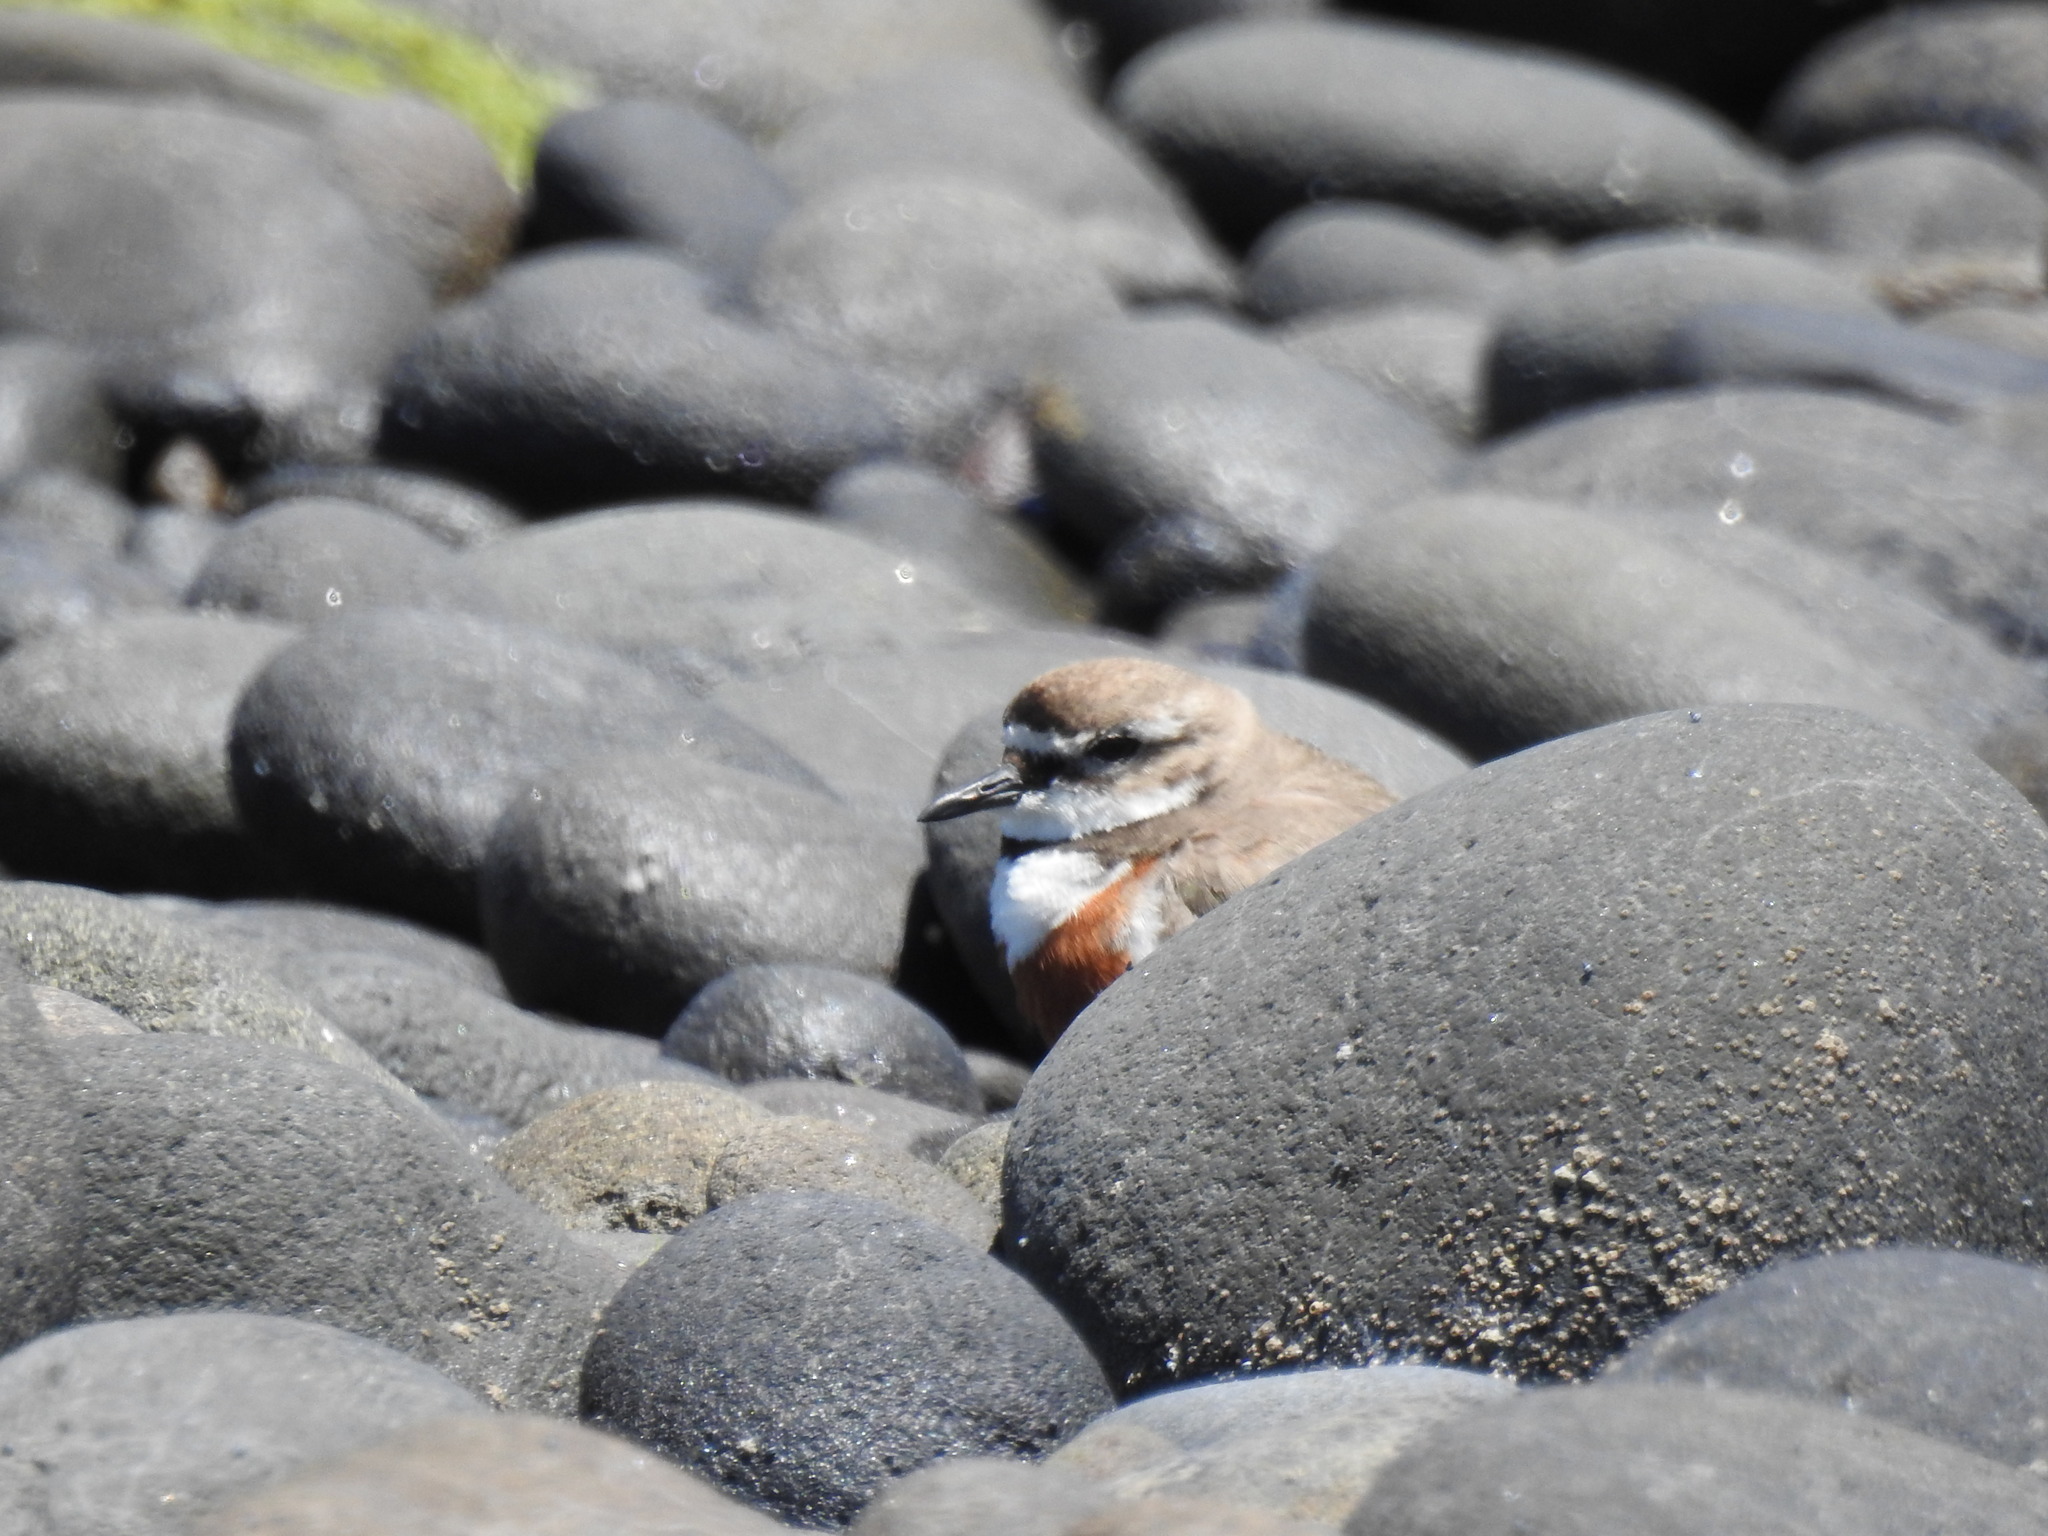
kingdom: Animalia
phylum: Chordata
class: Aves
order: Charadriiformes
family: Charadriidae
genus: Anarhynchus
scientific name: Anarhynchus
